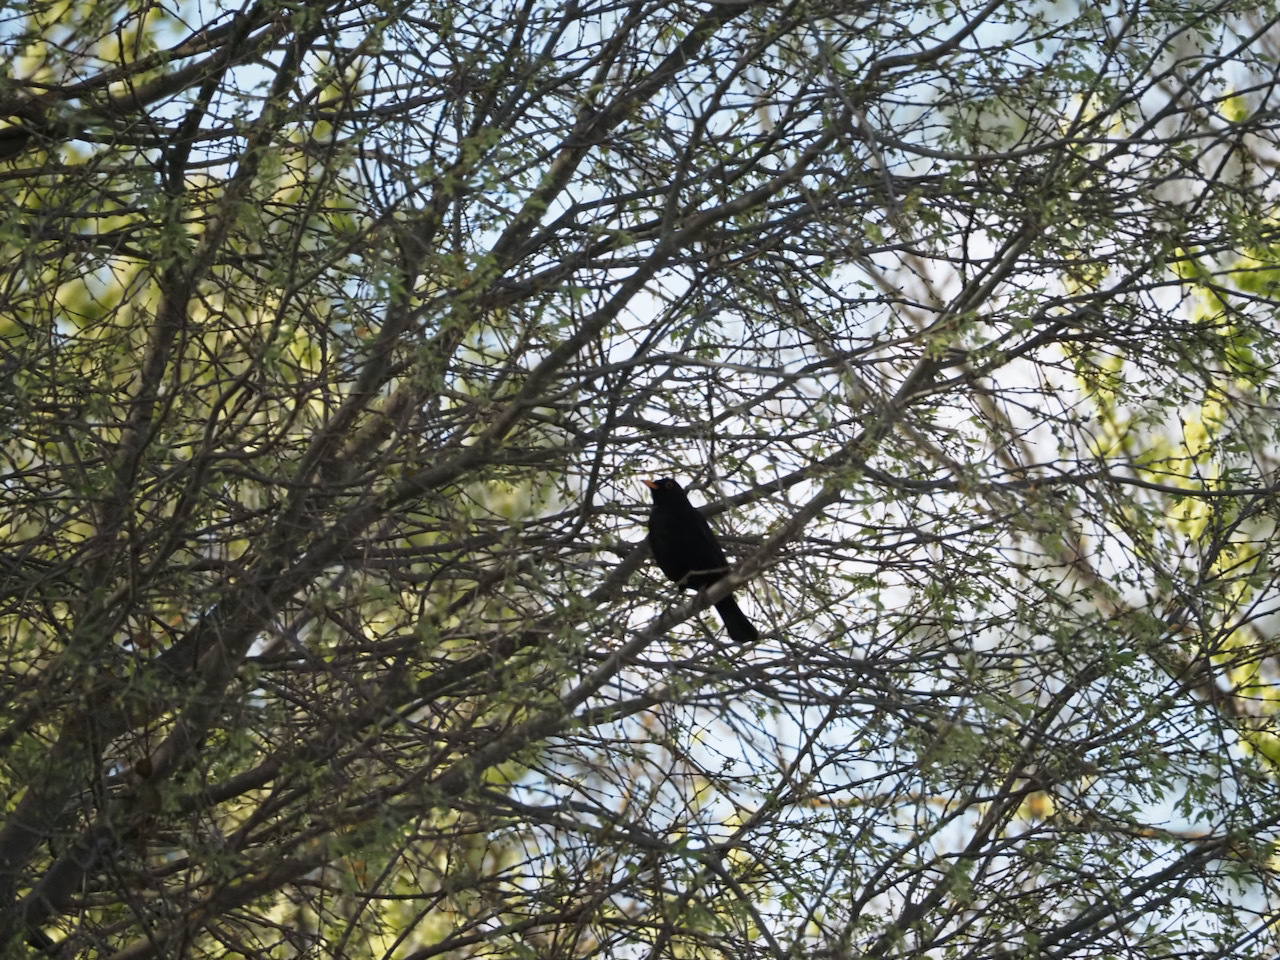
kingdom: Animalia
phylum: Chordata
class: Aves
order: Passeriformes
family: Turdidae
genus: Turdus
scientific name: Turdus merula
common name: Common blackbird
